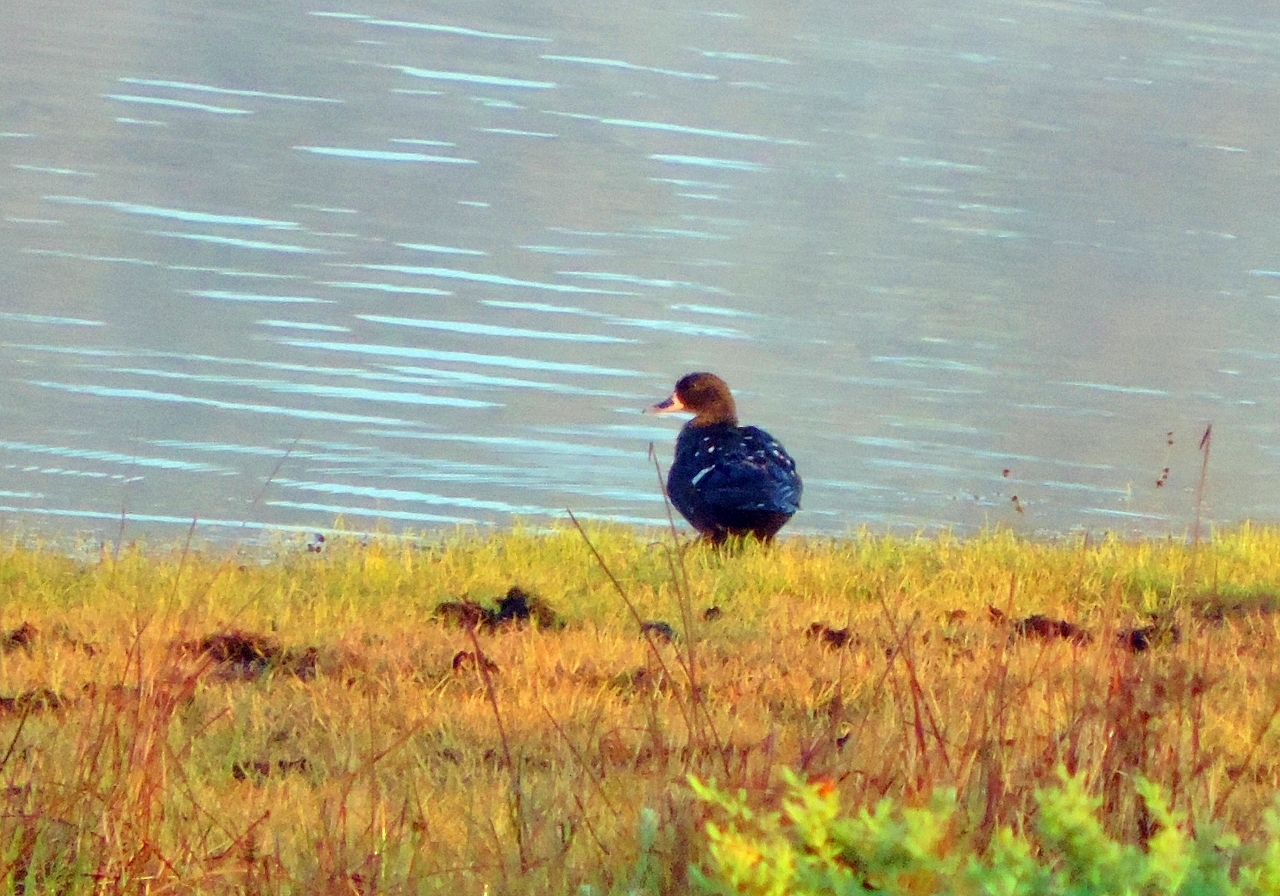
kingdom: Animalia
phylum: Chordata
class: Aves
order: Anseriformes
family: Anatidae
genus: Anas
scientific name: Anas sparsa
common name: African black duck
